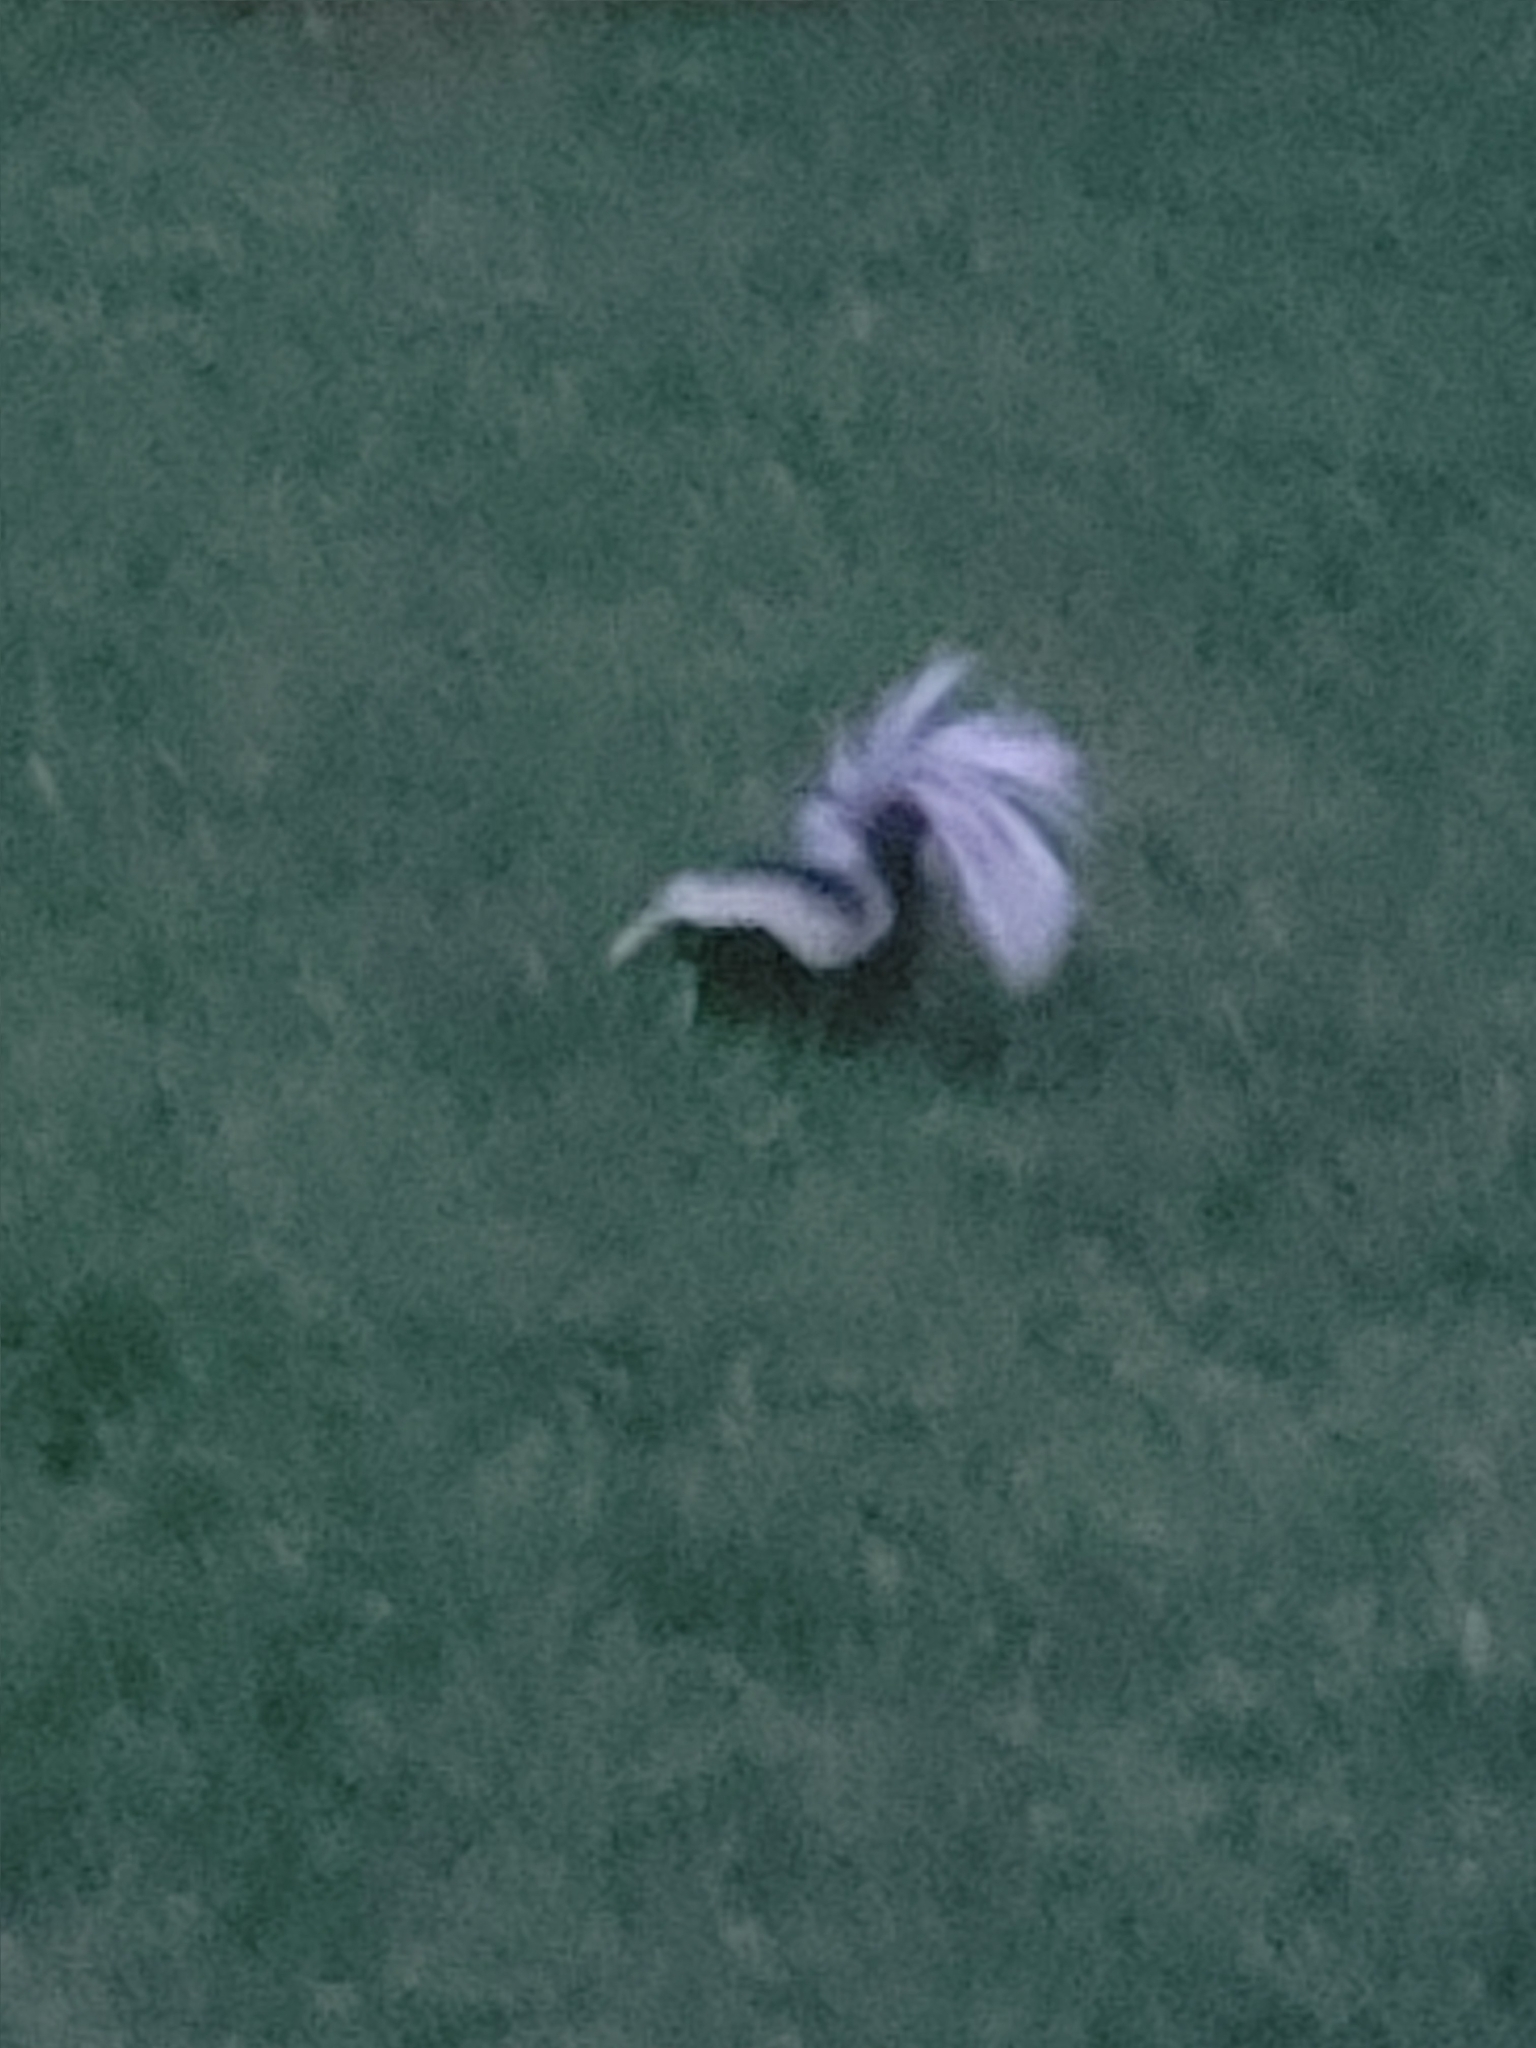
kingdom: Animalia
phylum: Chordata
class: Mammalia
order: Carnivora
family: Mephitidae
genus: Mephitis
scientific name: Mephitis mephitis
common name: Striped skunk
